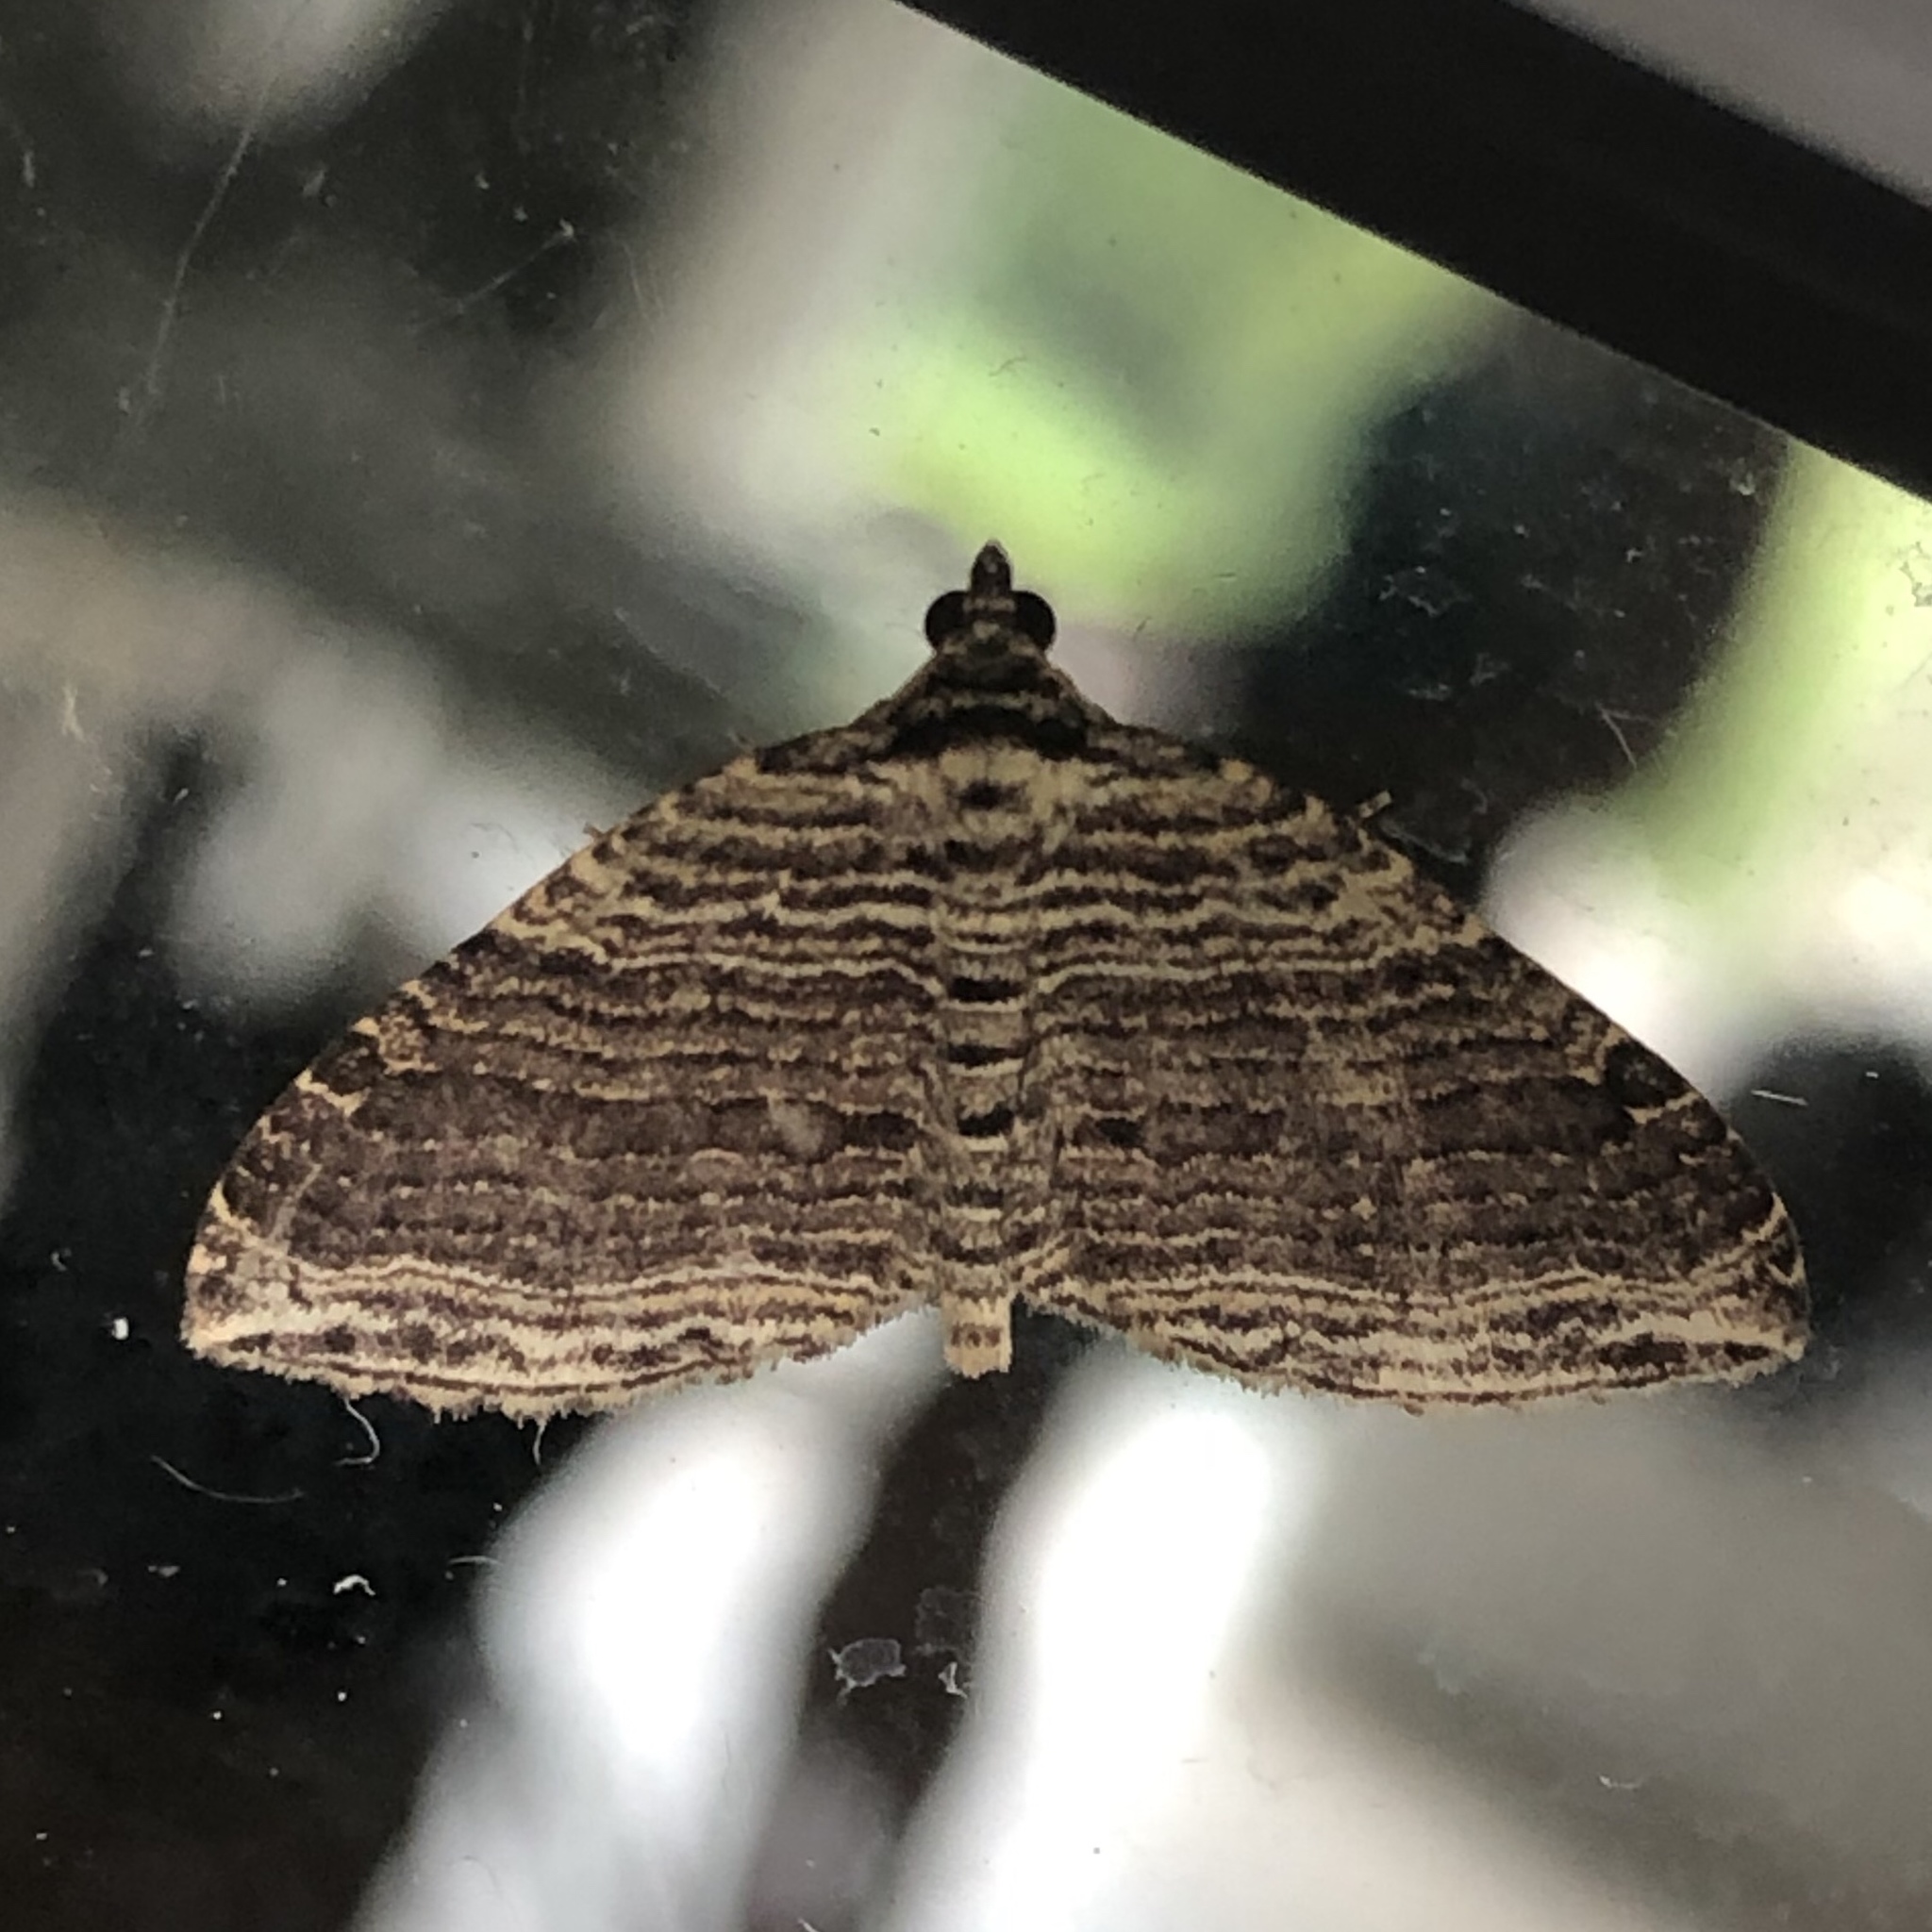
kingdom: Animalia
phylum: Arthropoda
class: Insecta
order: Lepidoptera
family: Geometridae
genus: Anticlea
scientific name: Anticlea multiferata
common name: Many-lined carpet
